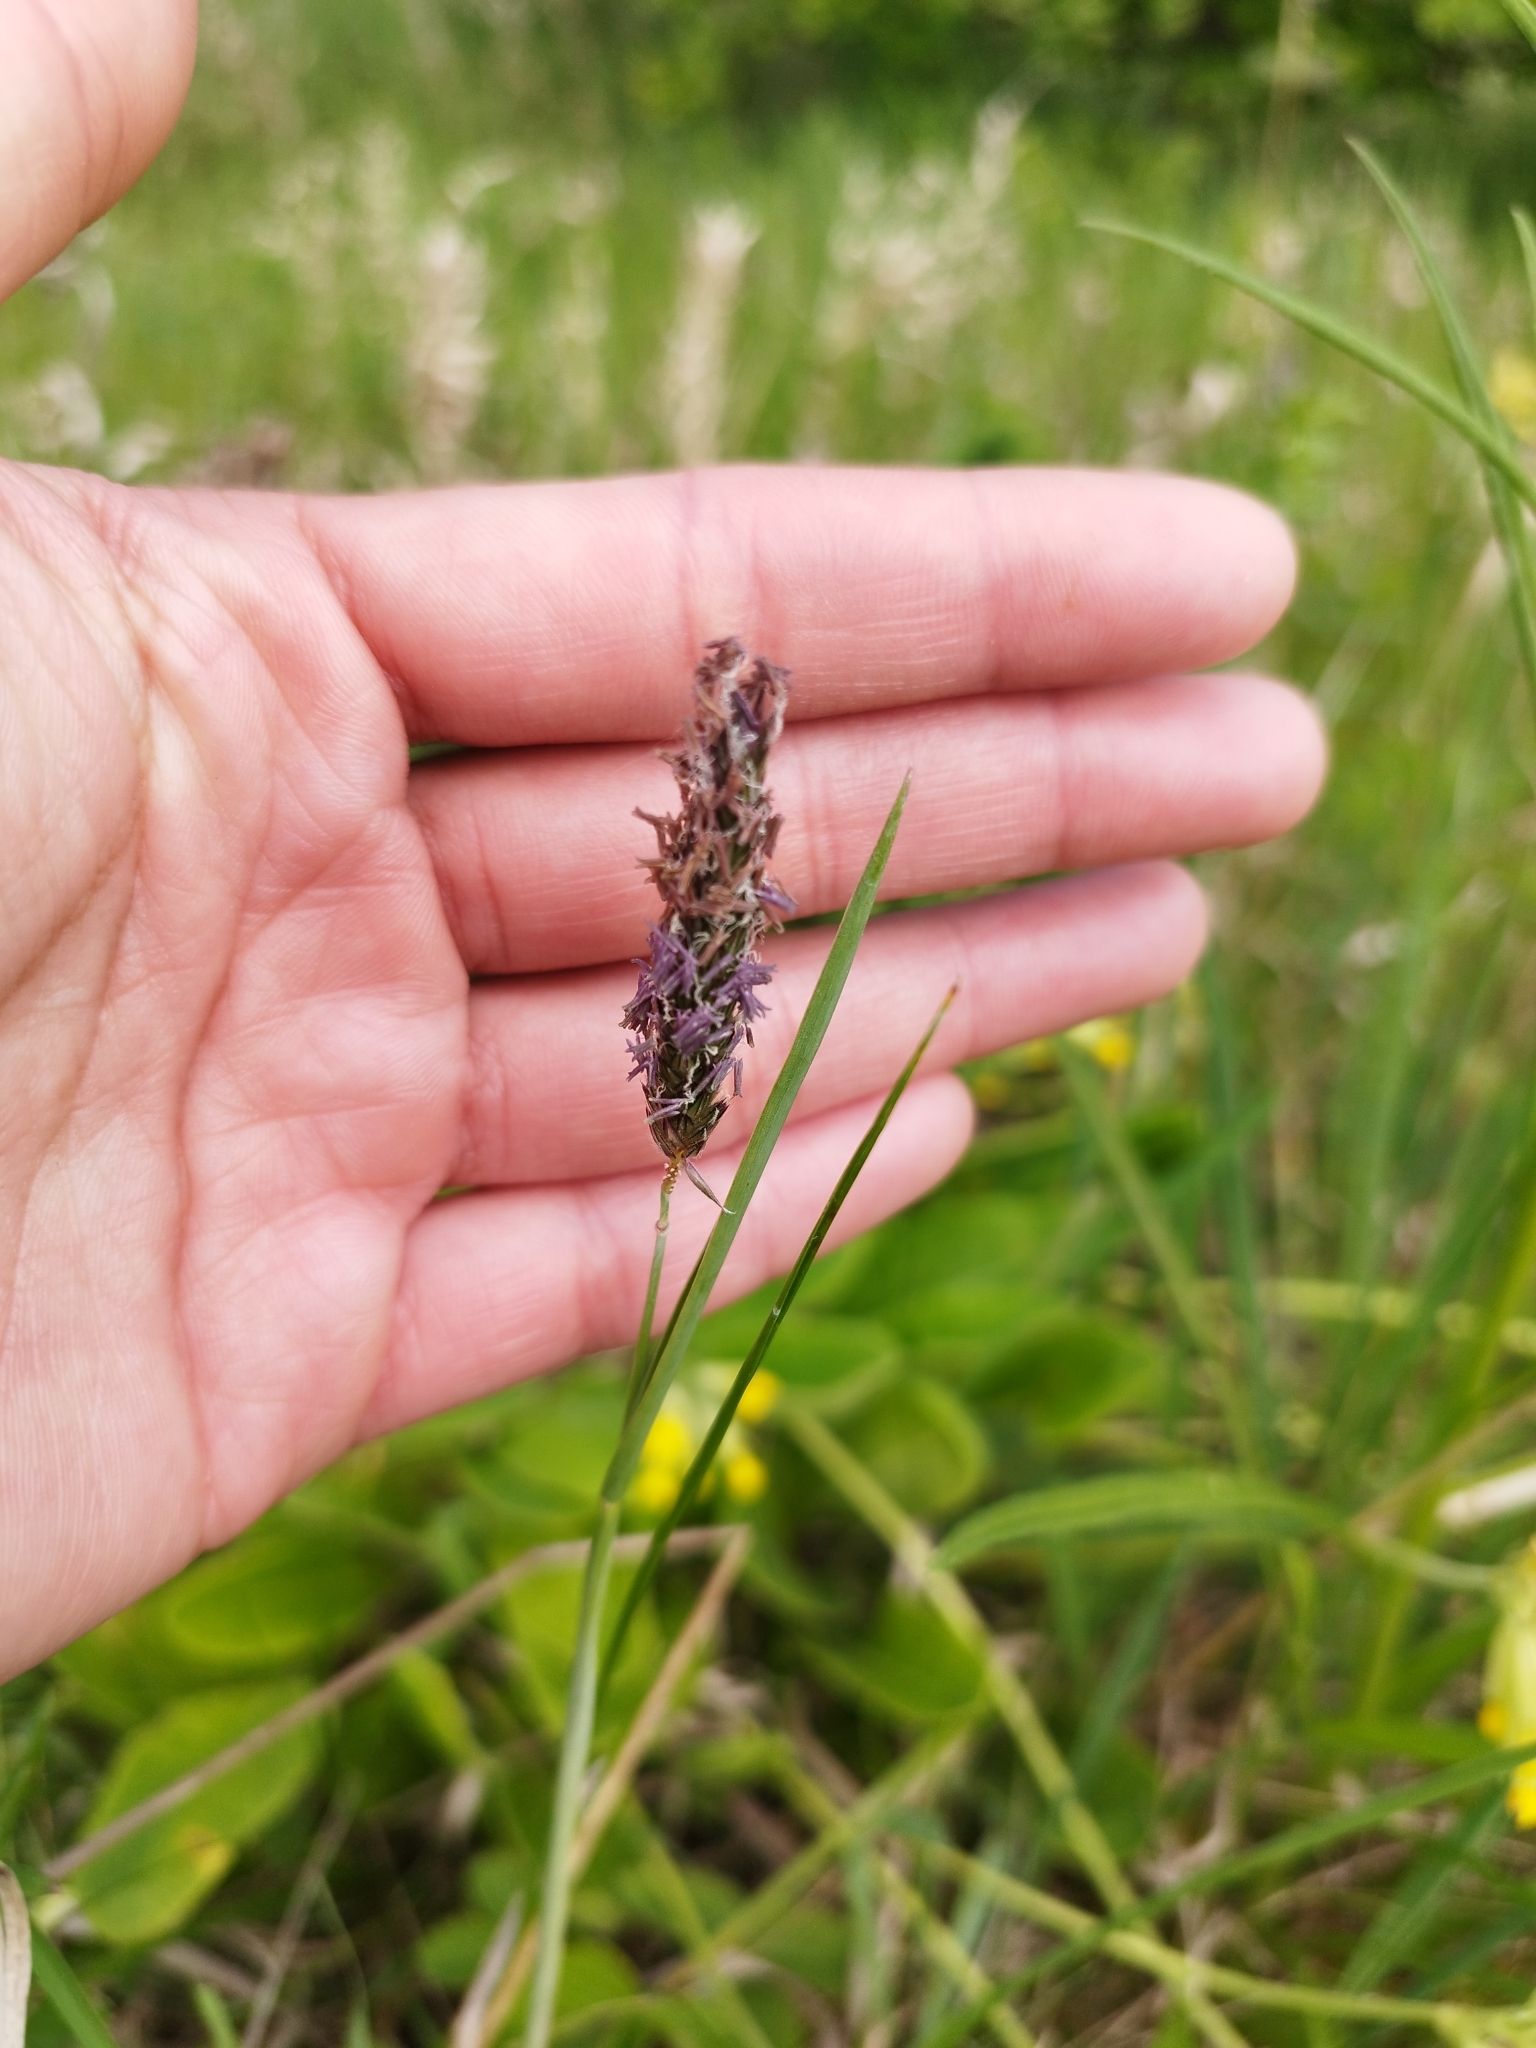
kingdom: Plantae
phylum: Tracheophyta
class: Liliopsida
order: Poales
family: Poaceae
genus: Alopecurus
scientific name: Alopecurus pratensis
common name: Meadow foxtail
